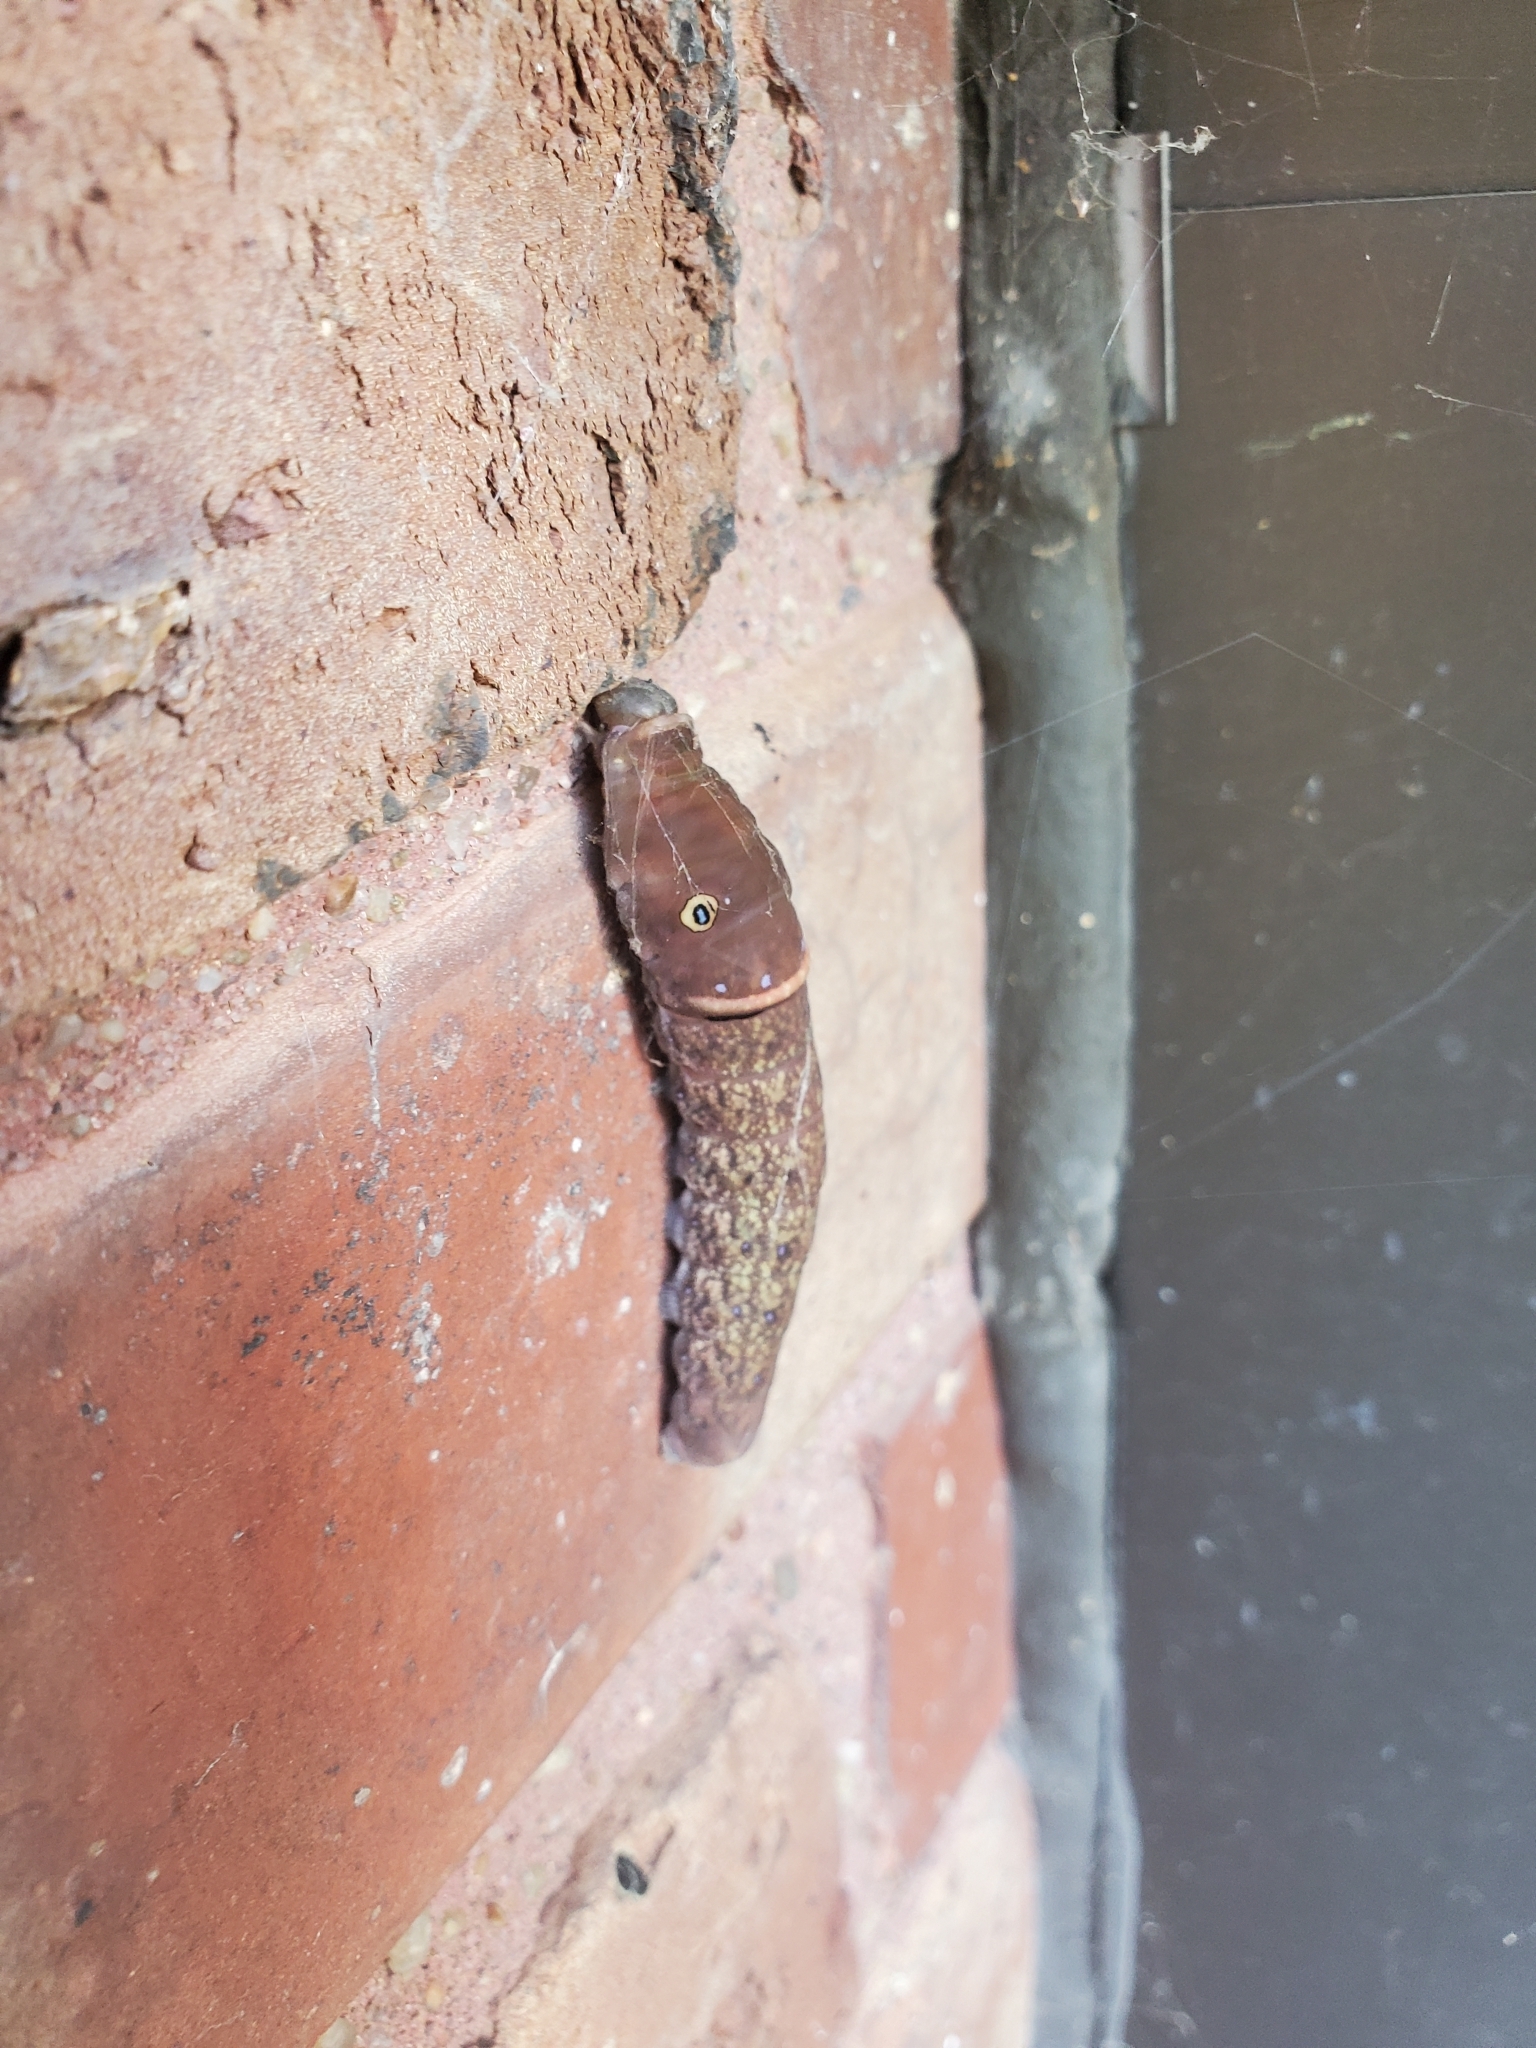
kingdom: Animalia
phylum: Arthropoda
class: Insecta
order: Lepidoptera
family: Papilionidae
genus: Papilio
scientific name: Papilio glaucus
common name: Tiger swallowtail
